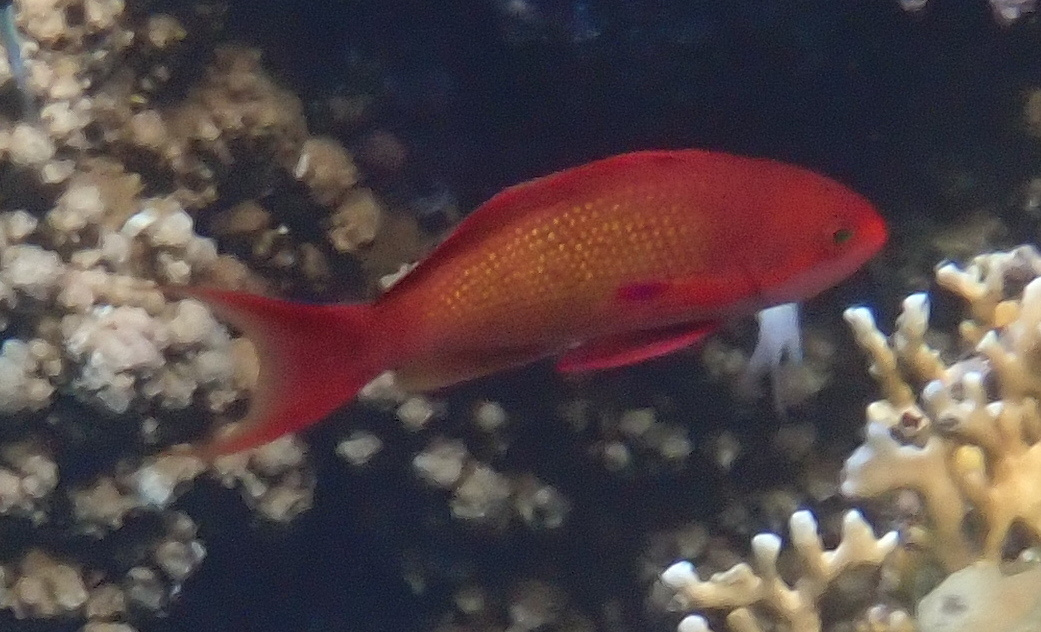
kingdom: Animalia
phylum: Chordata
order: Perciformes
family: Serranidae
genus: Pseudanthias
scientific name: Pseudanthias squamipinnis
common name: Scalefin anthias
